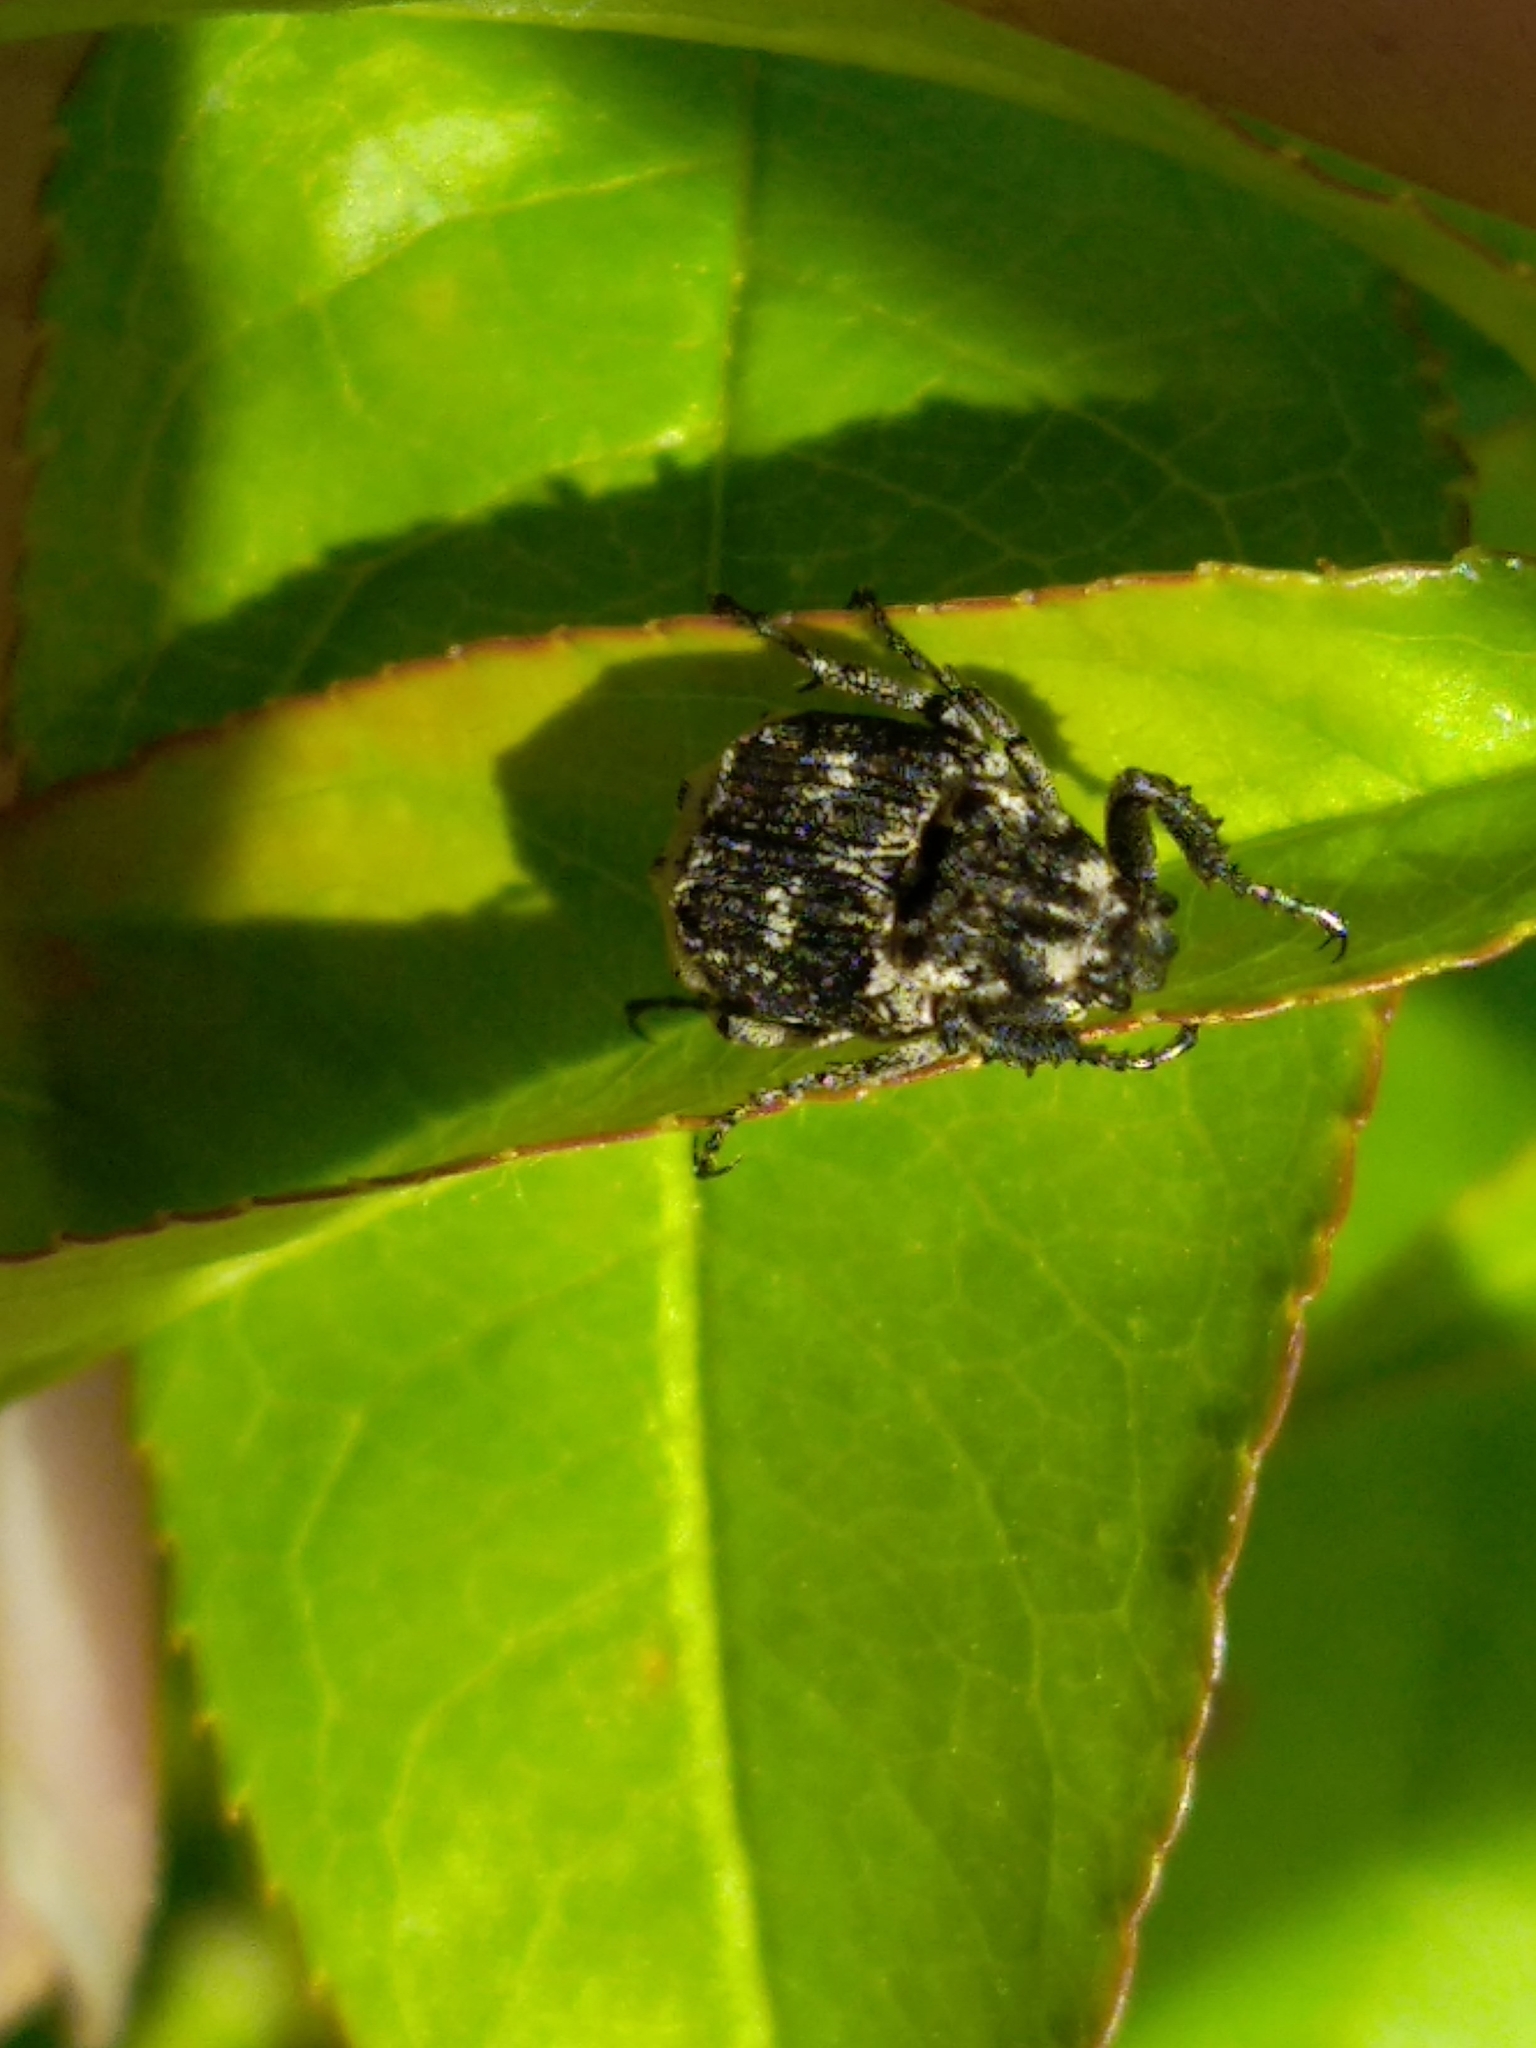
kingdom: Animalia
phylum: Arthropoda
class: Insecta
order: Coleoptera
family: Scarabaeidae
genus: Valgus
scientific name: Valgus hemipterus
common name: Bug flower chafer
